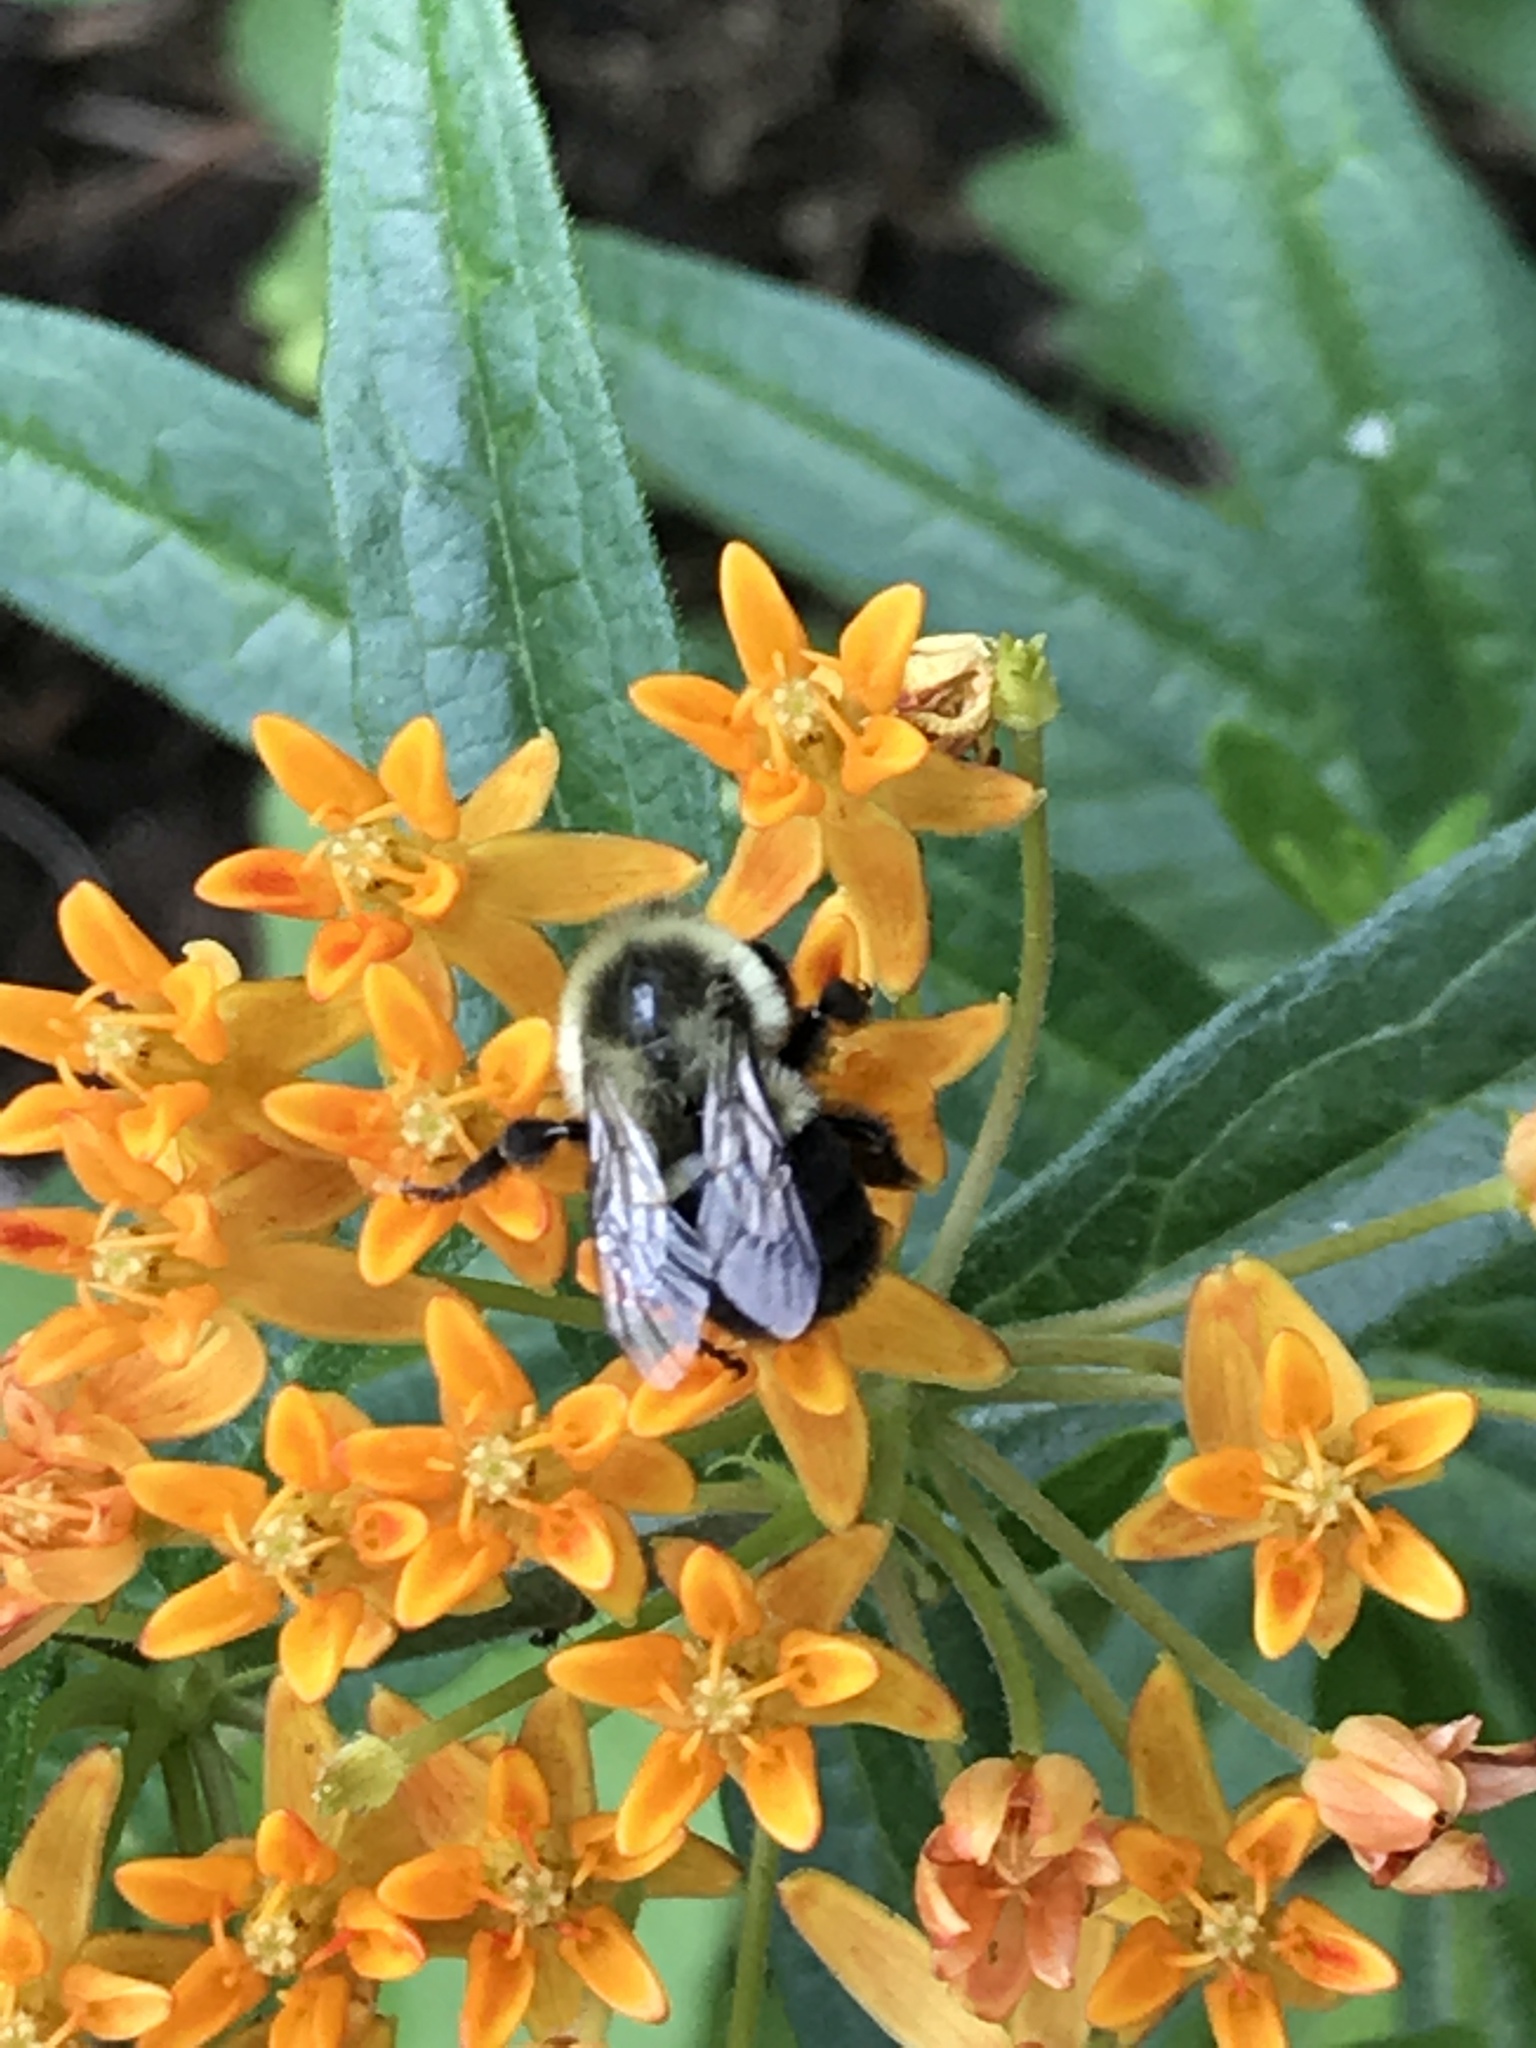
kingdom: Animalia
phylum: Arthropoda
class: Insecta
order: Hymenoptera
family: Apidae
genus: Bombus
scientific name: Bombus impatiens
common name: Common eastern bumble bee
